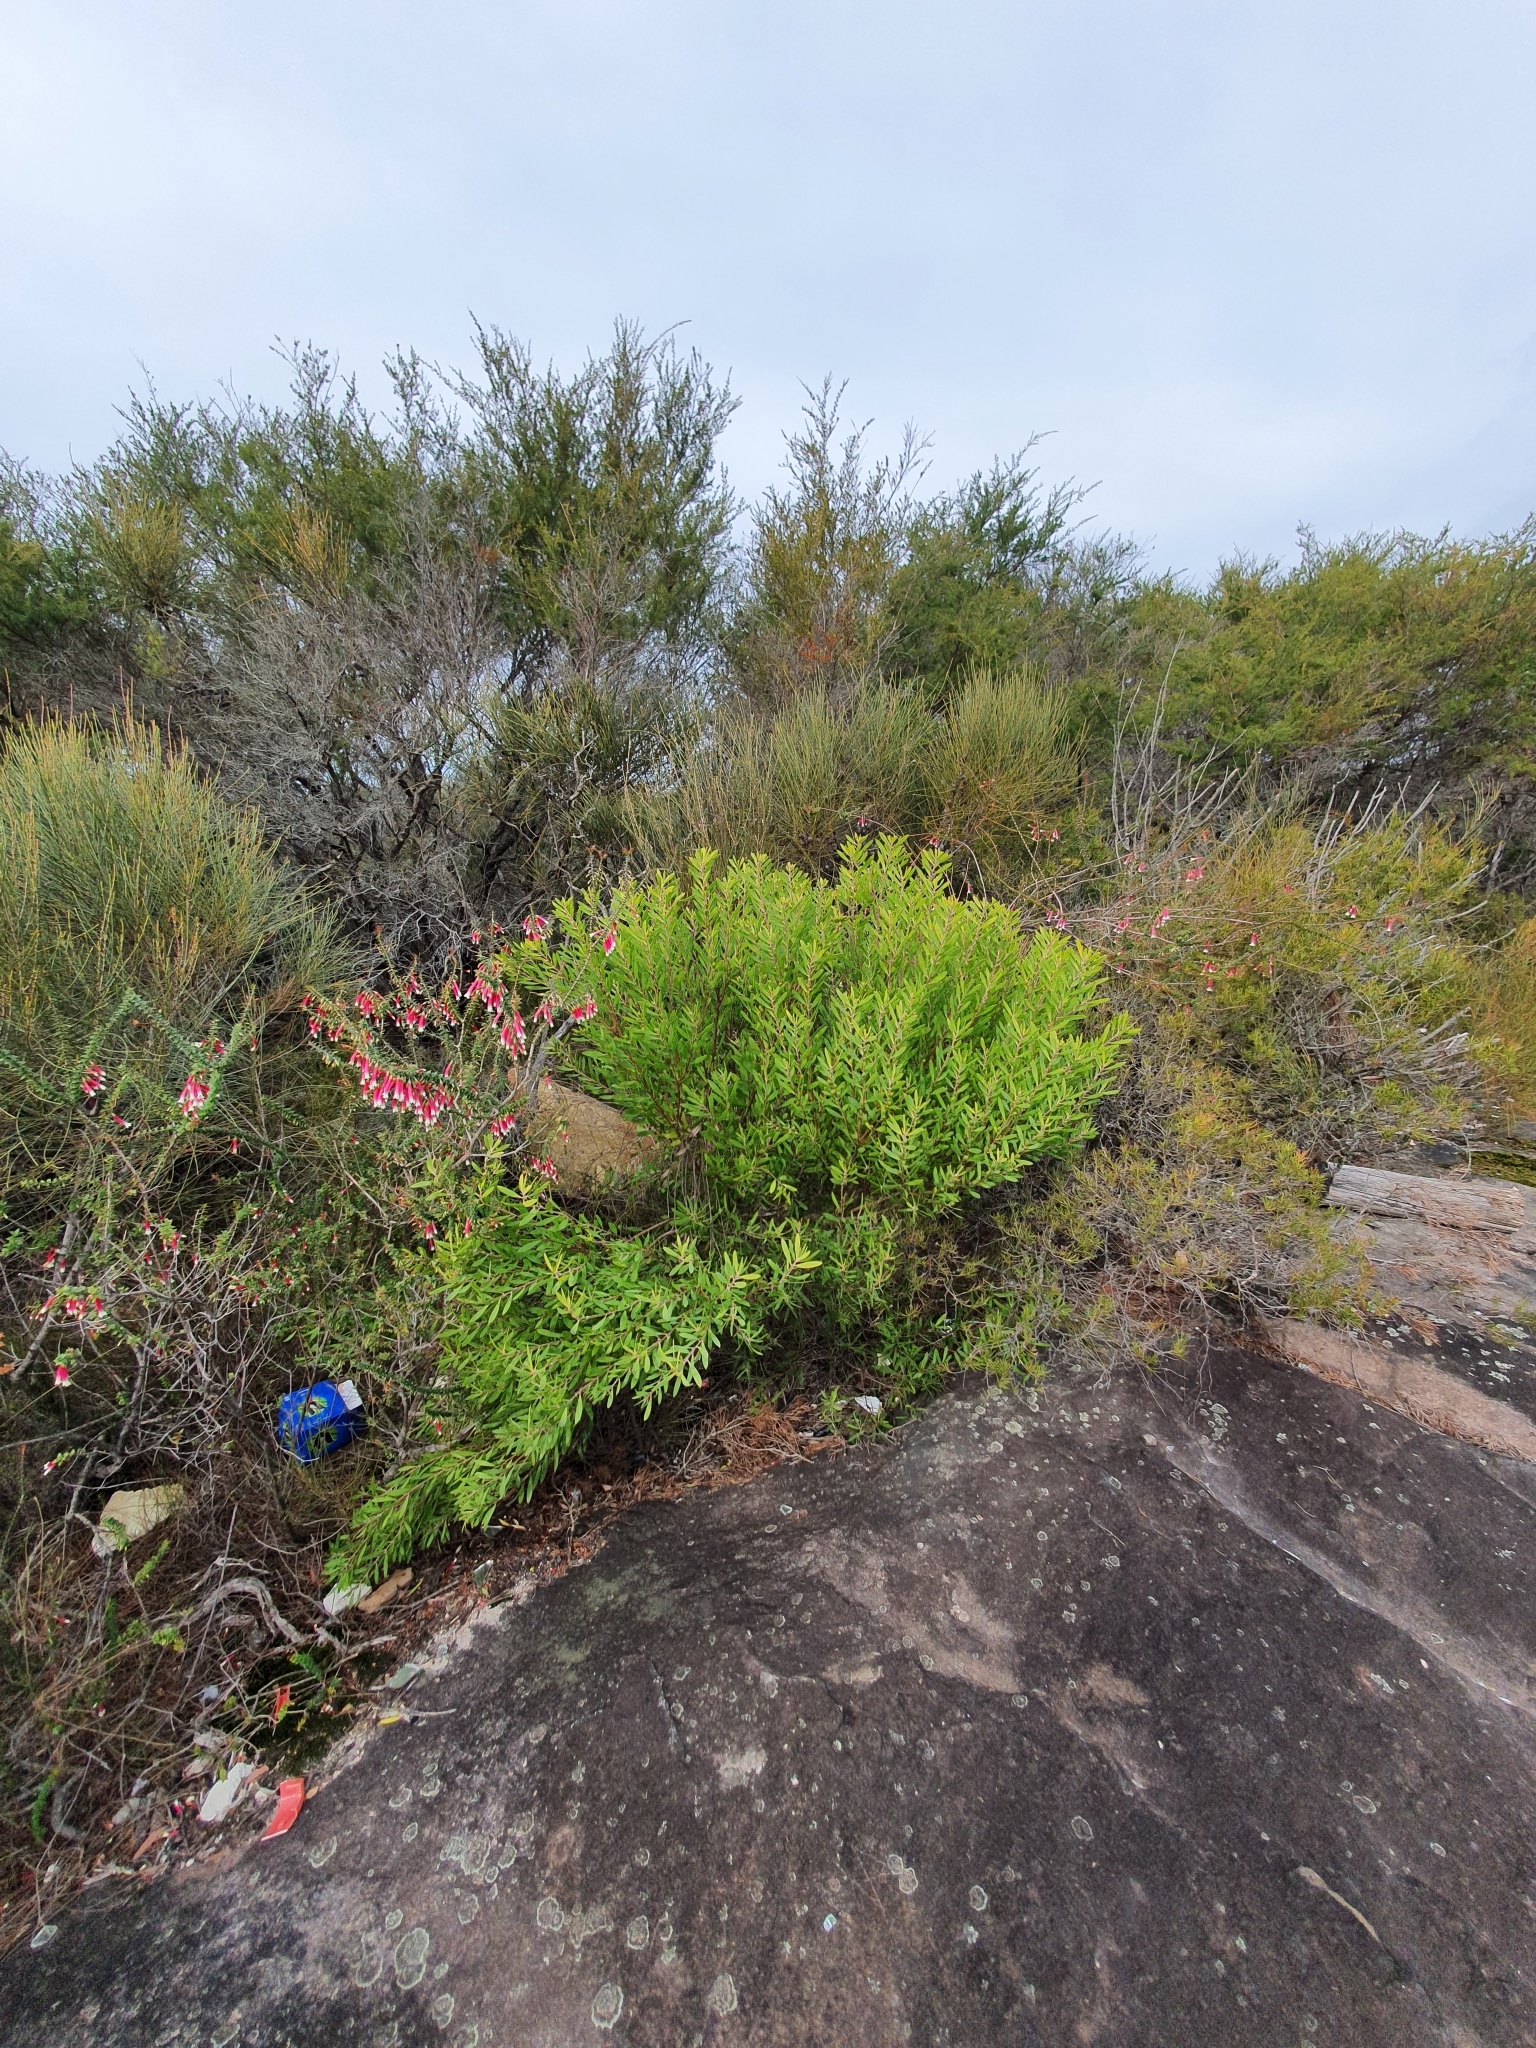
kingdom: Plantae
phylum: Tracheophyta
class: Magnoliopsida
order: Proteales
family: Proteaceae
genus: Persoonia
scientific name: Persoonia lanceolata
